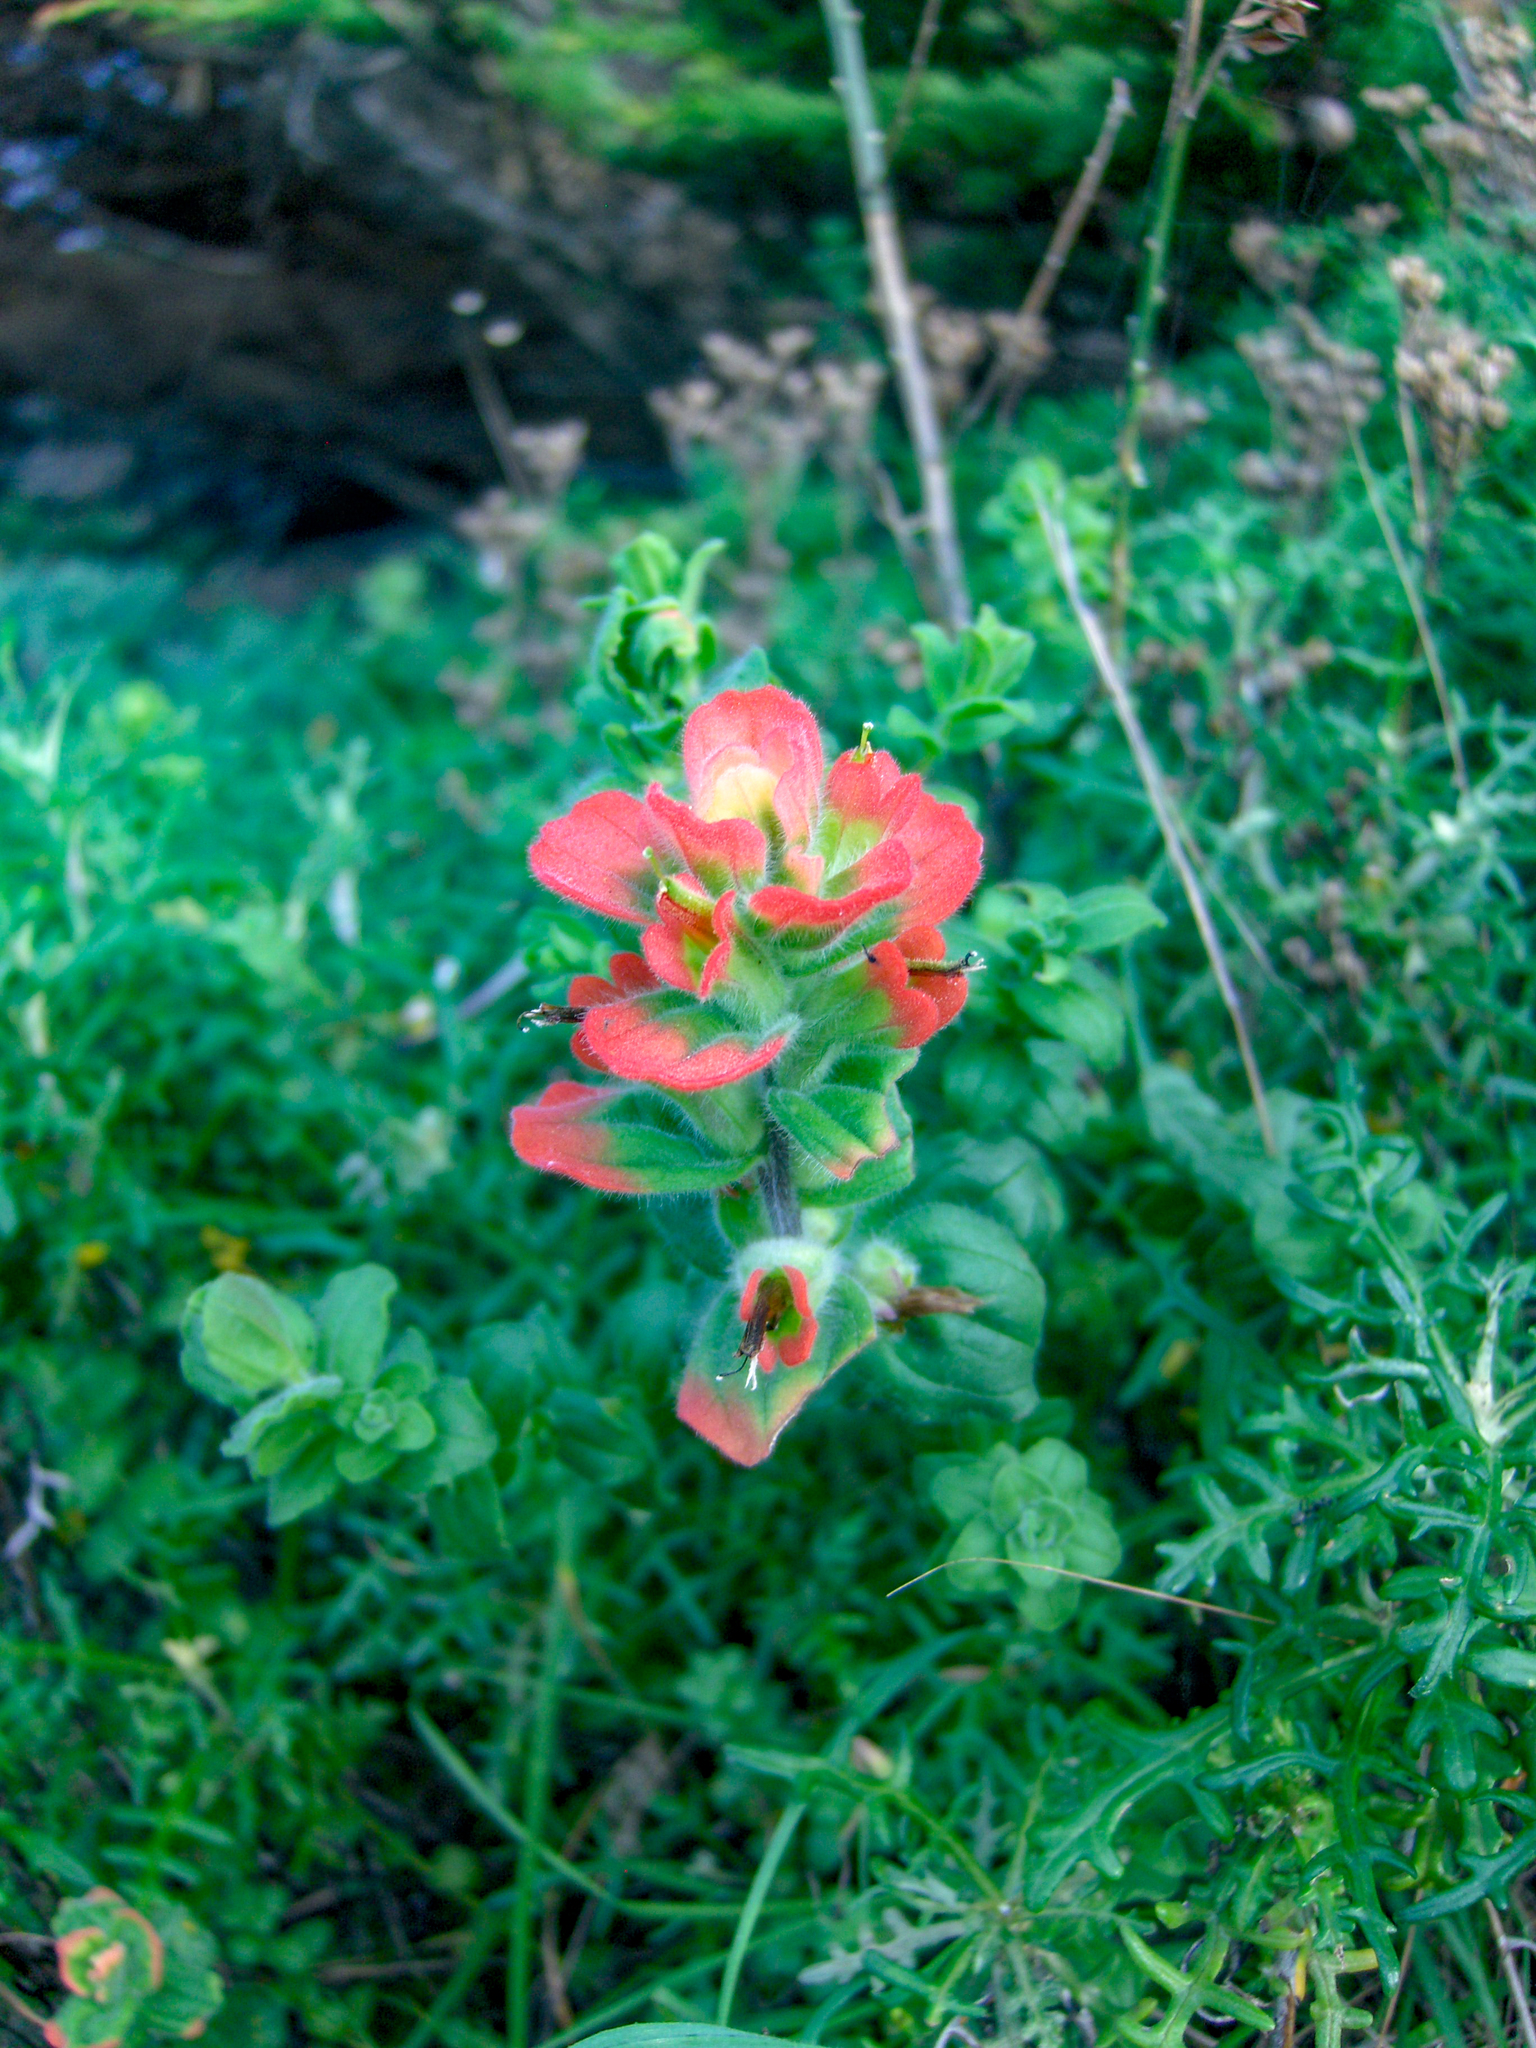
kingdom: Plantae
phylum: Tracheophyta
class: Magnoliopsida
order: Lamiales
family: Orobanchaceae
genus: Castilleja
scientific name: Castilleja latifolia
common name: Monterey indian paintbrush
